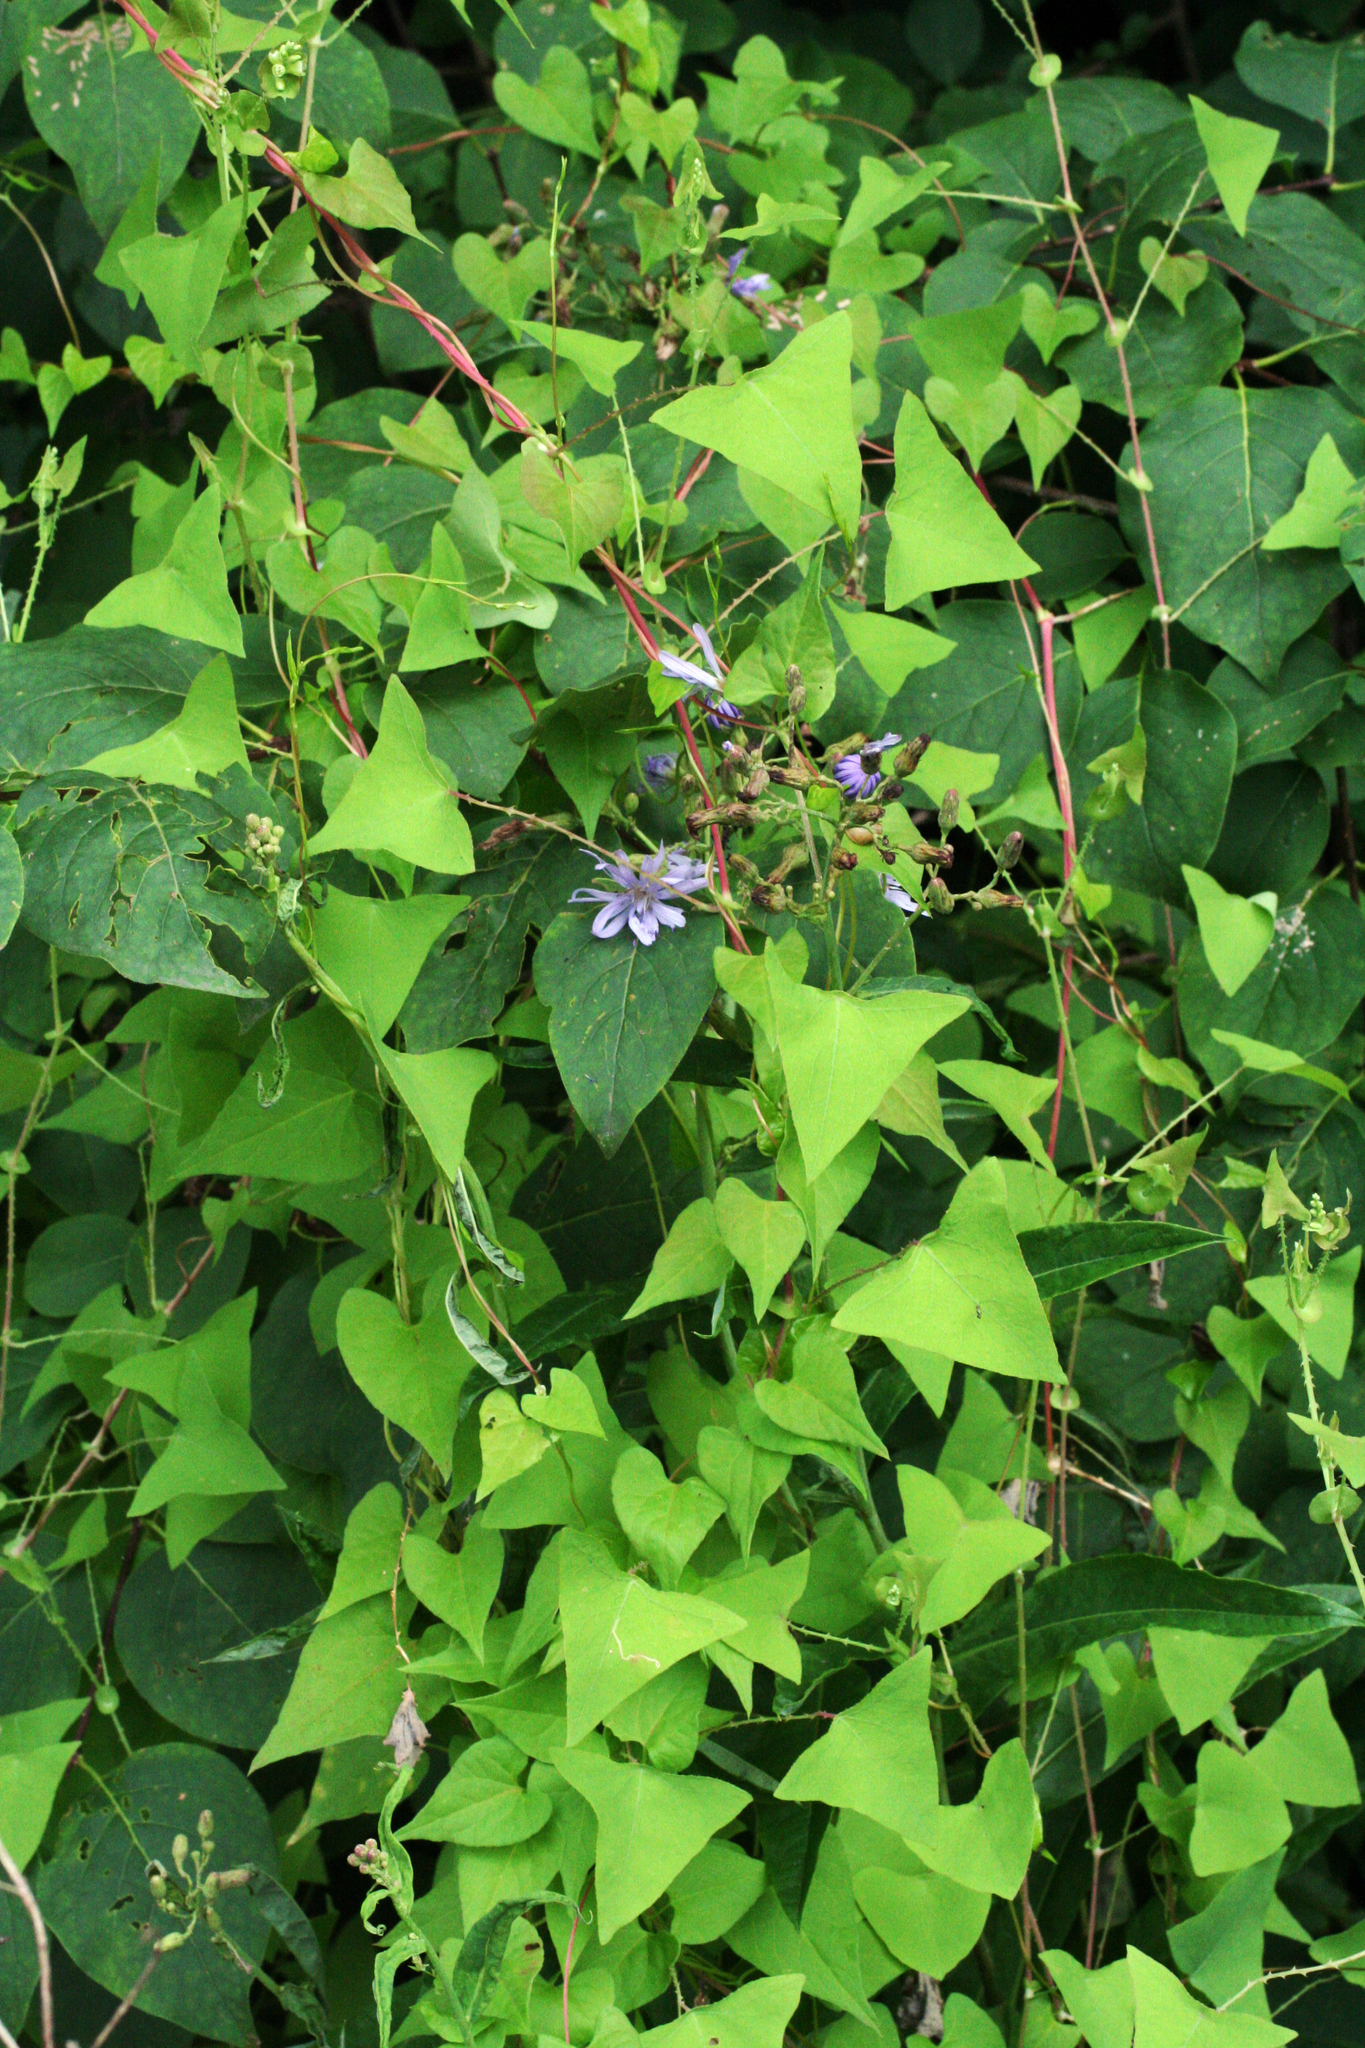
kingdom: Plantae
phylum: Tracheophyta
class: Magnoliopsida
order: Caryophyllales
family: Polygonaceae
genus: Persicaria
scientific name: Persicaria perfoliata
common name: Asiatic tearthumb
